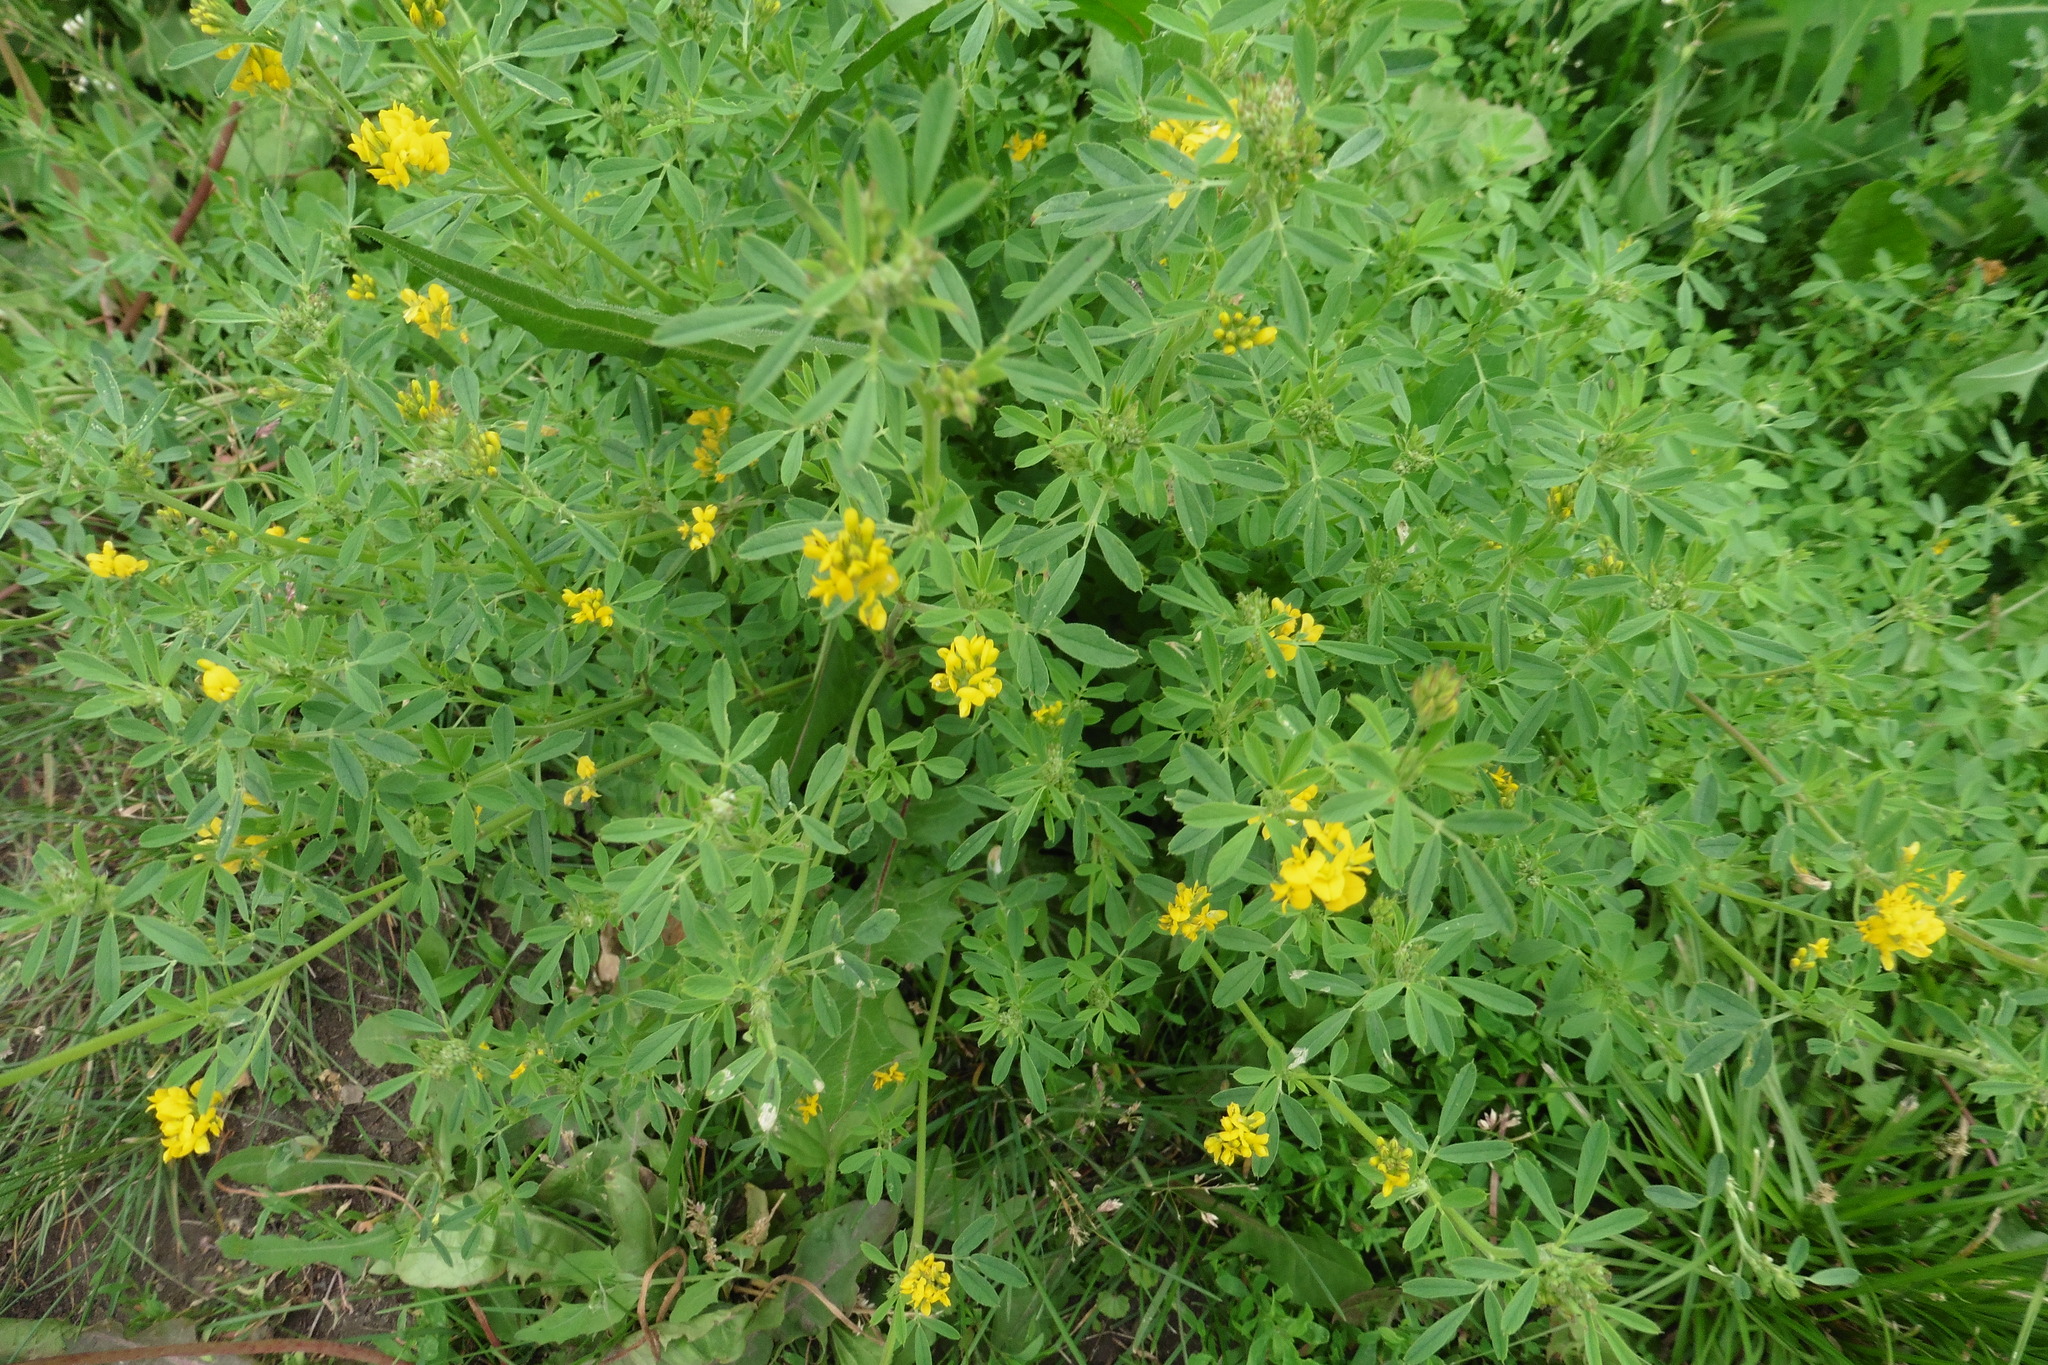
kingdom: Plantae
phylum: Tracheophyta
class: Magnoliopsida
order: Fabales
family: Fabaceae
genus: Medicago
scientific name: Medicago falcata
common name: Sickle medick
